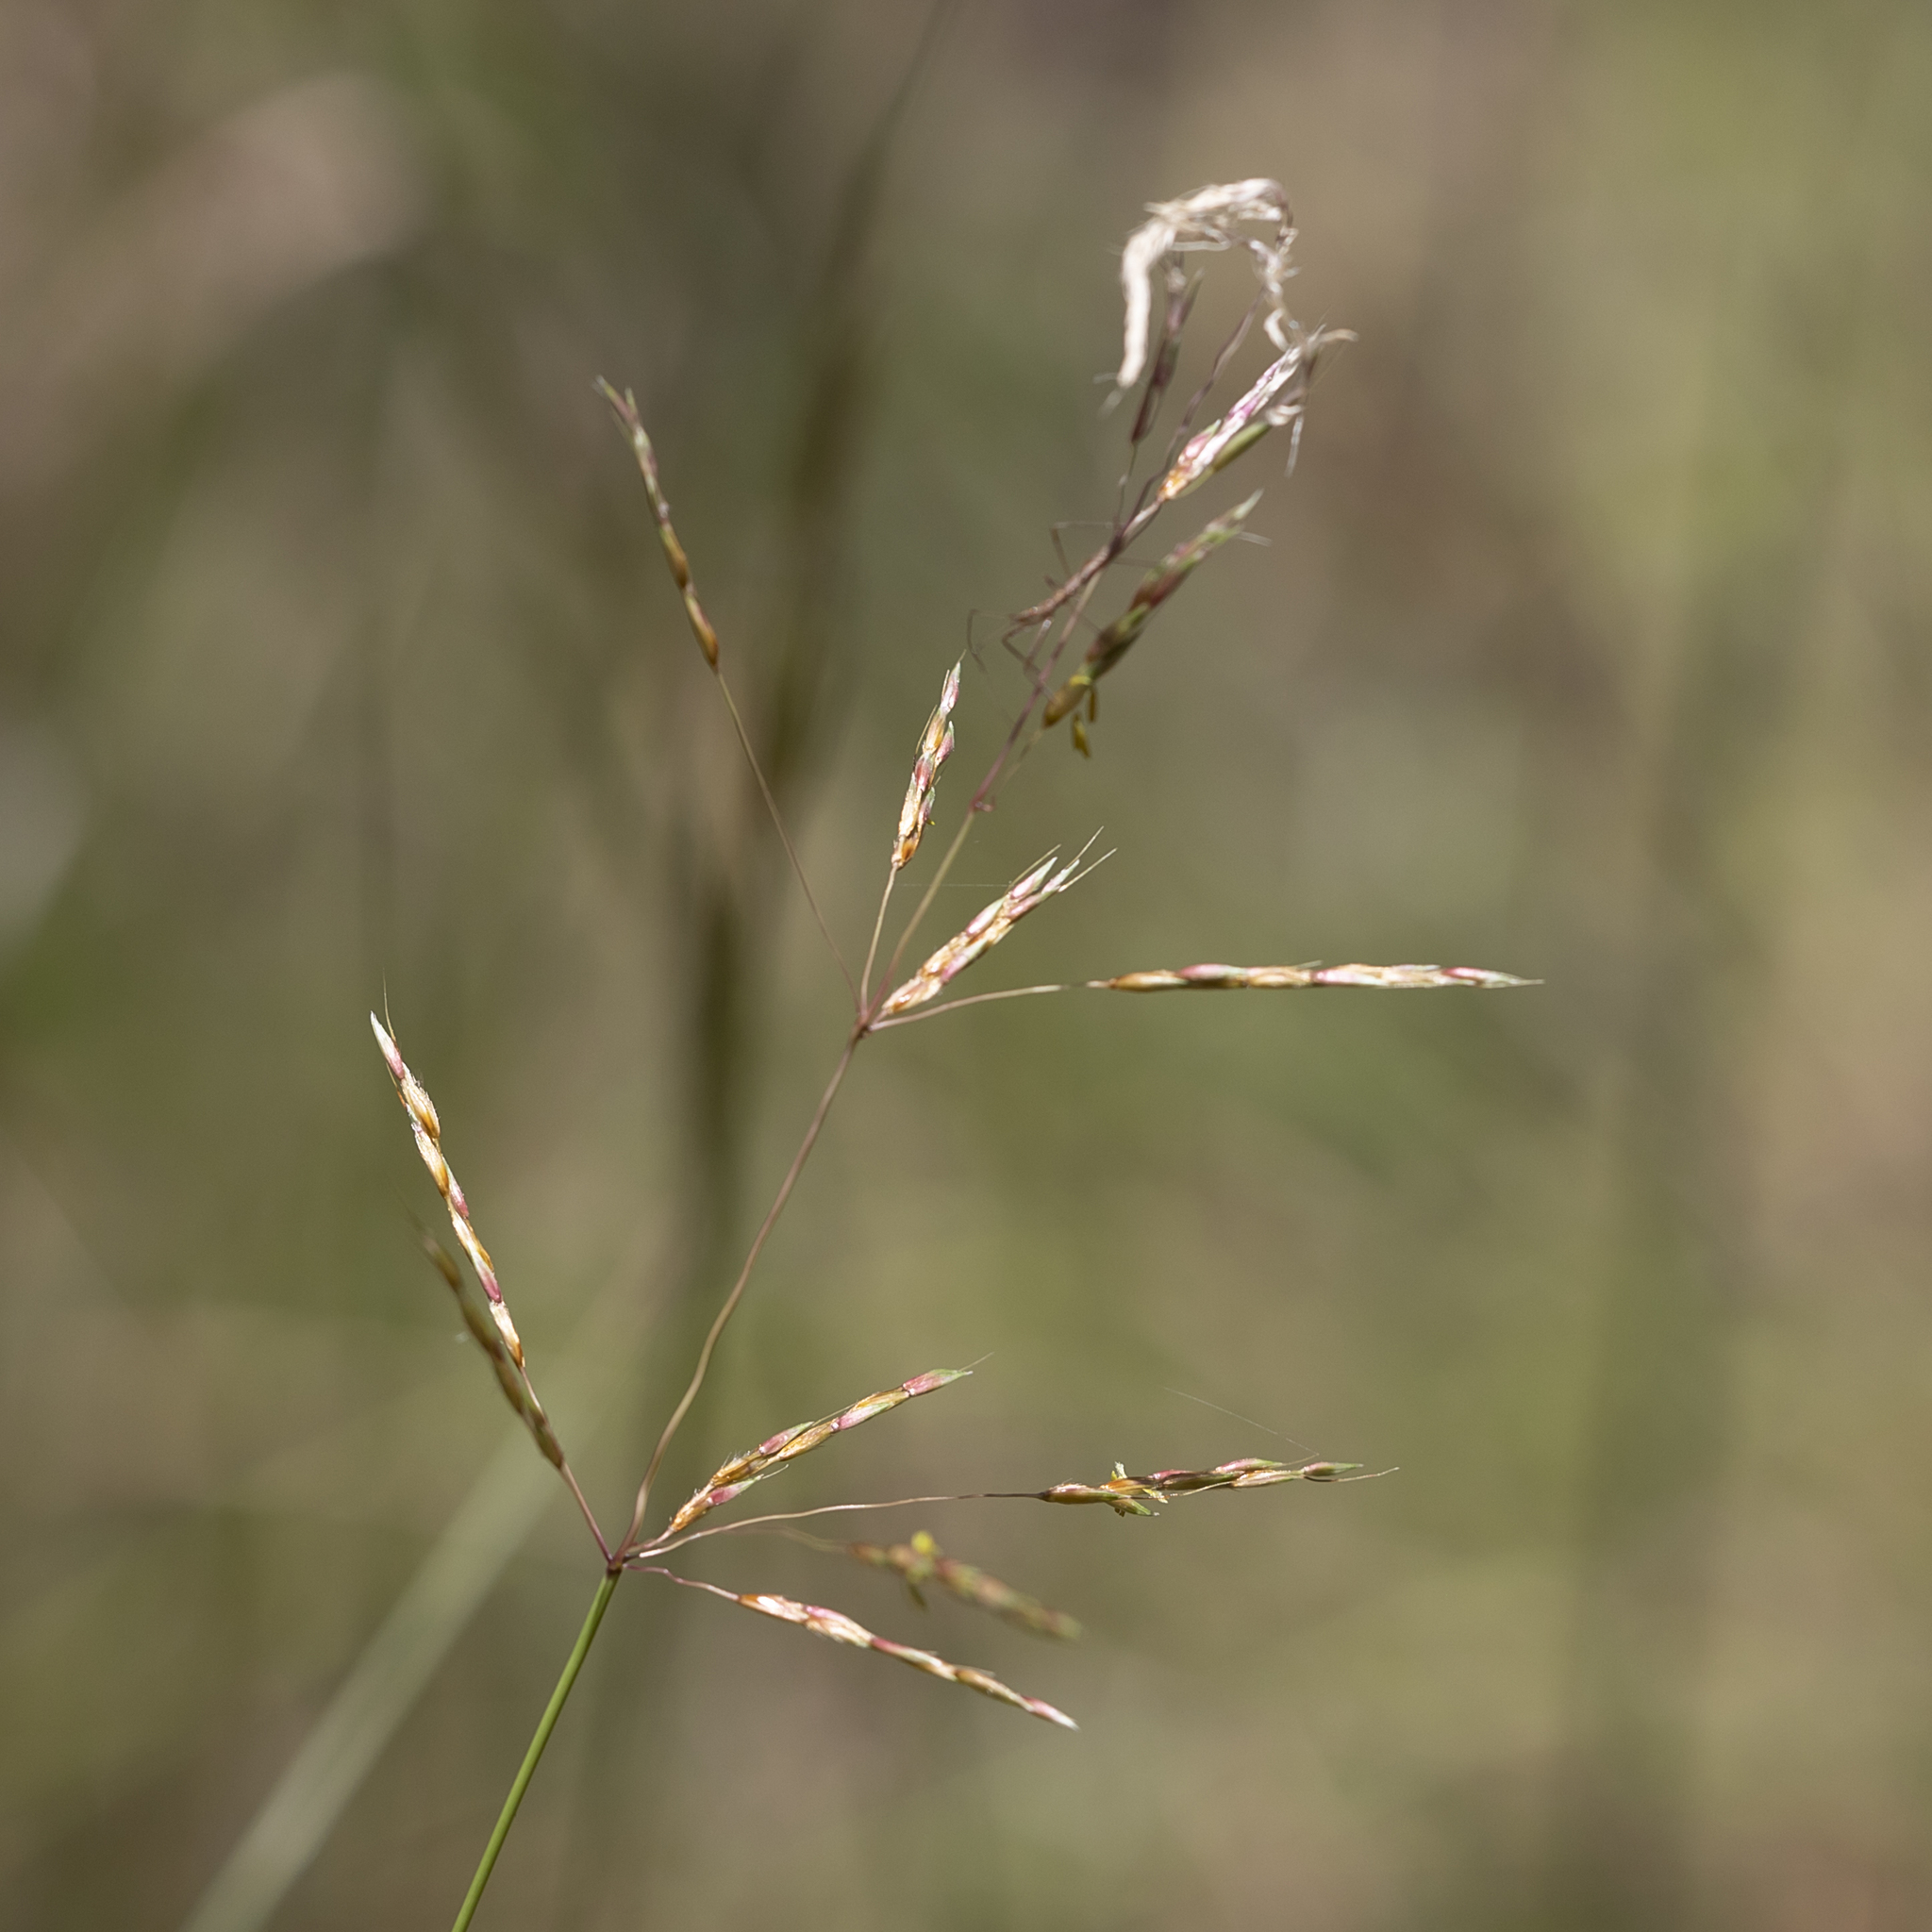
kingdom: Plantae
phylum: Tracheophyta
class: Liliopsida
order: Poales
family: Poaceae
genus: Capillipedium
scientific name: Capillipedium spicigerum
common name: Scented-top grass
